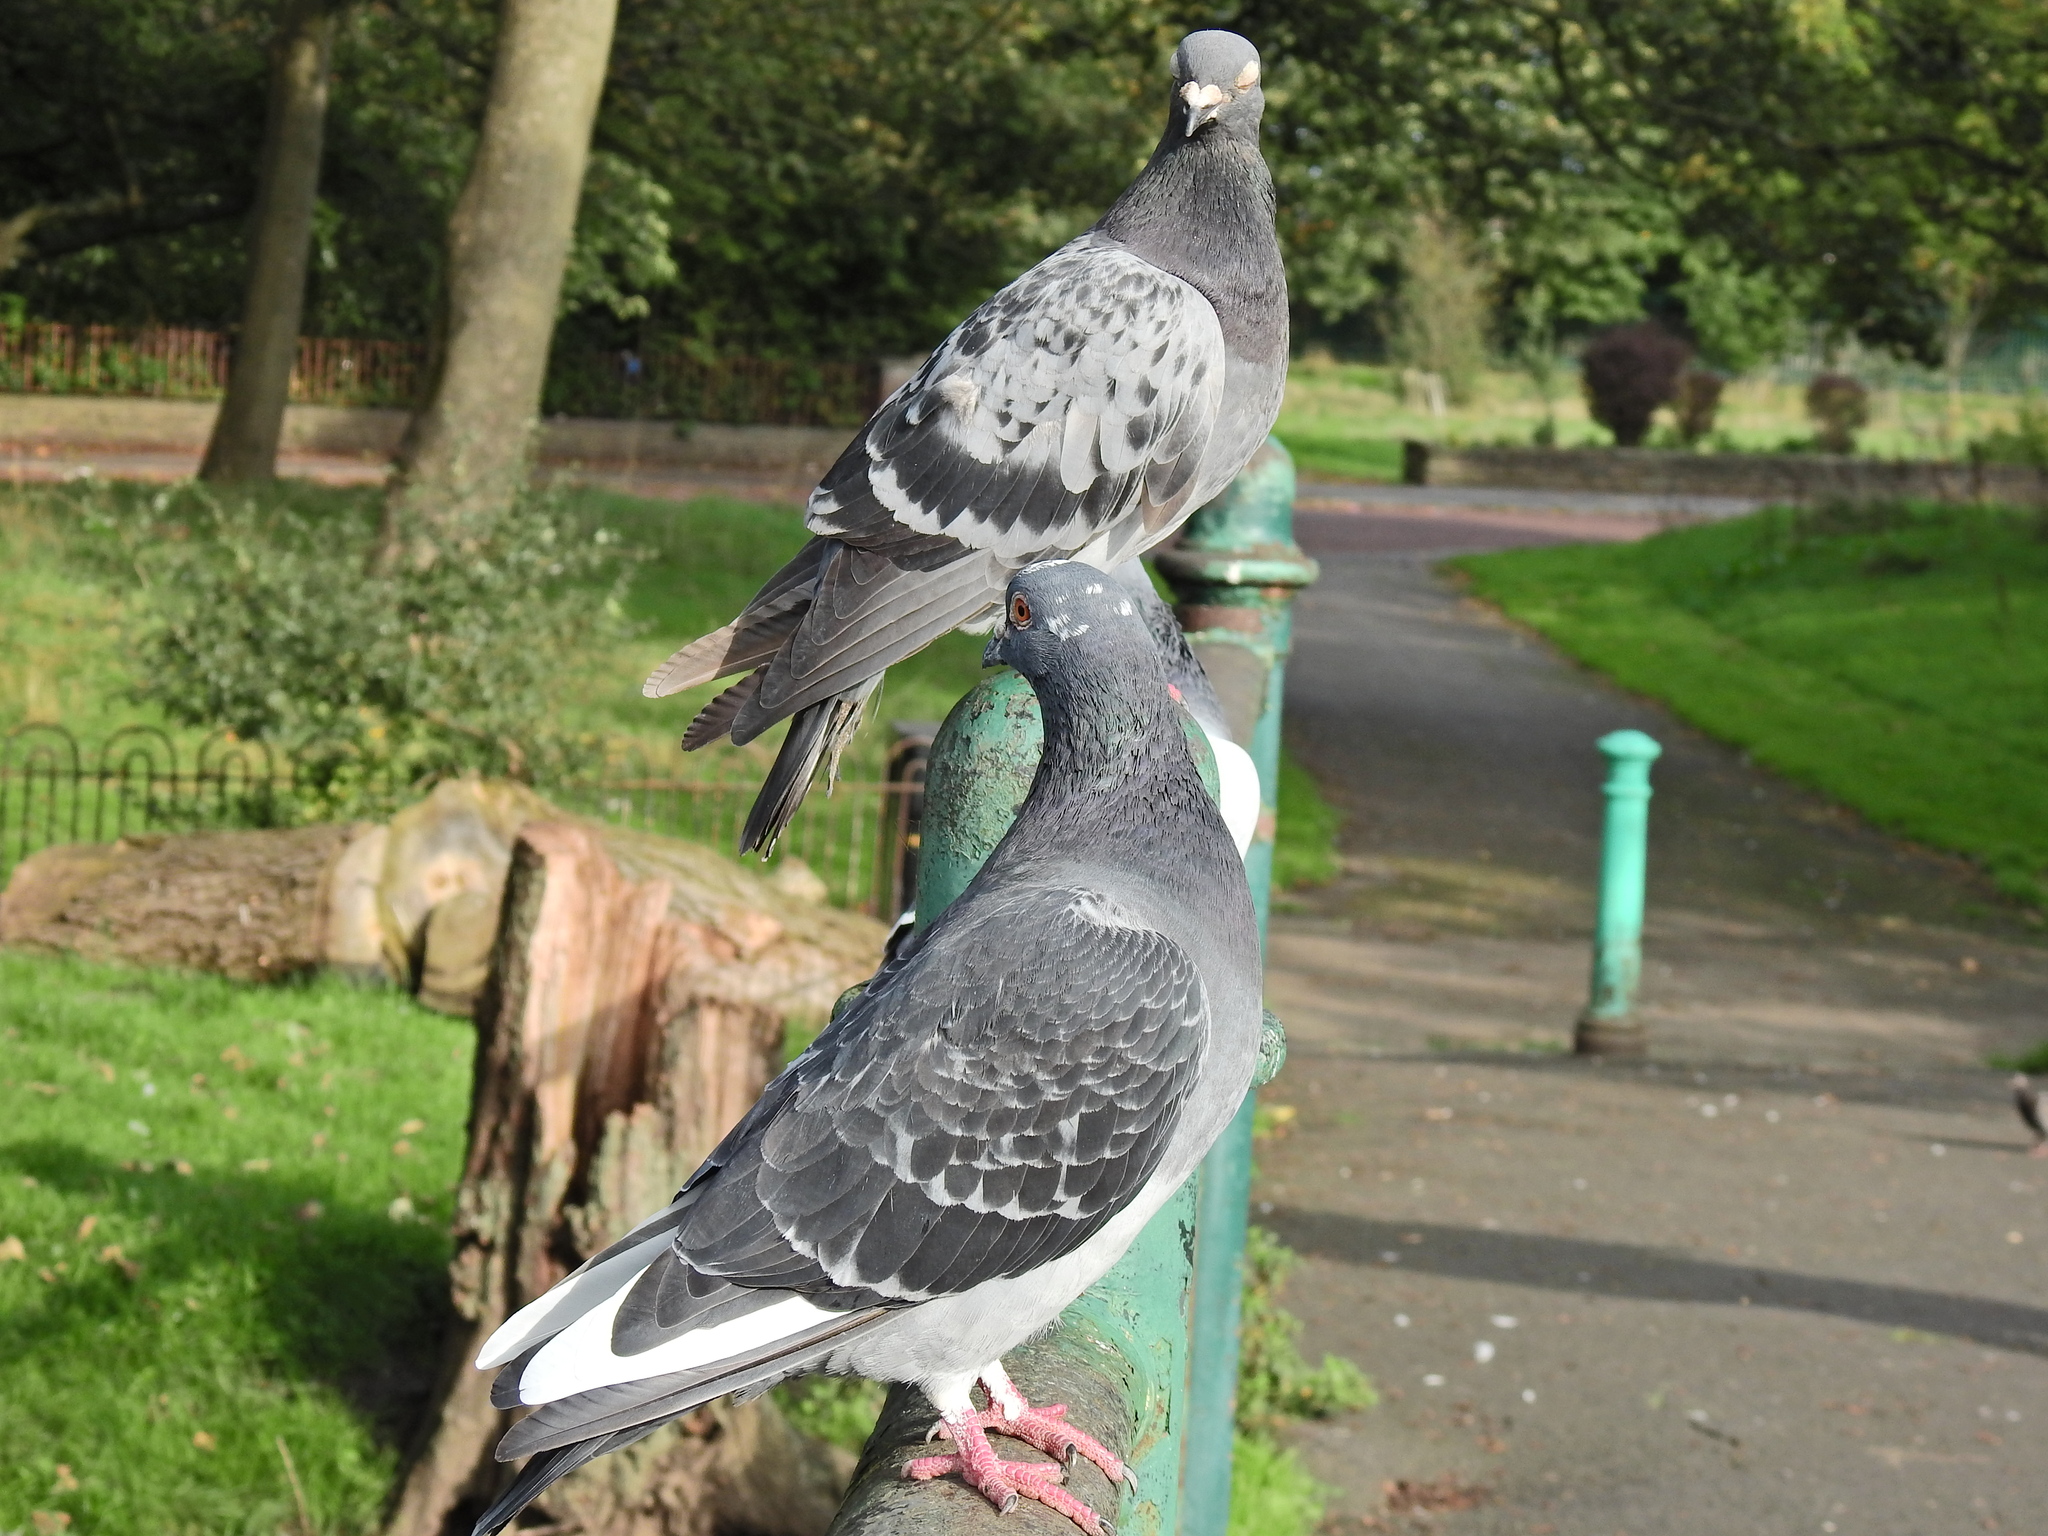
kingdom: Animalia
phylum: Chordata
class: Aves
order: Columbiformes
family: Columbidae
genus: Columba
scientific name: Columba livia
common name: Rock pigeon
